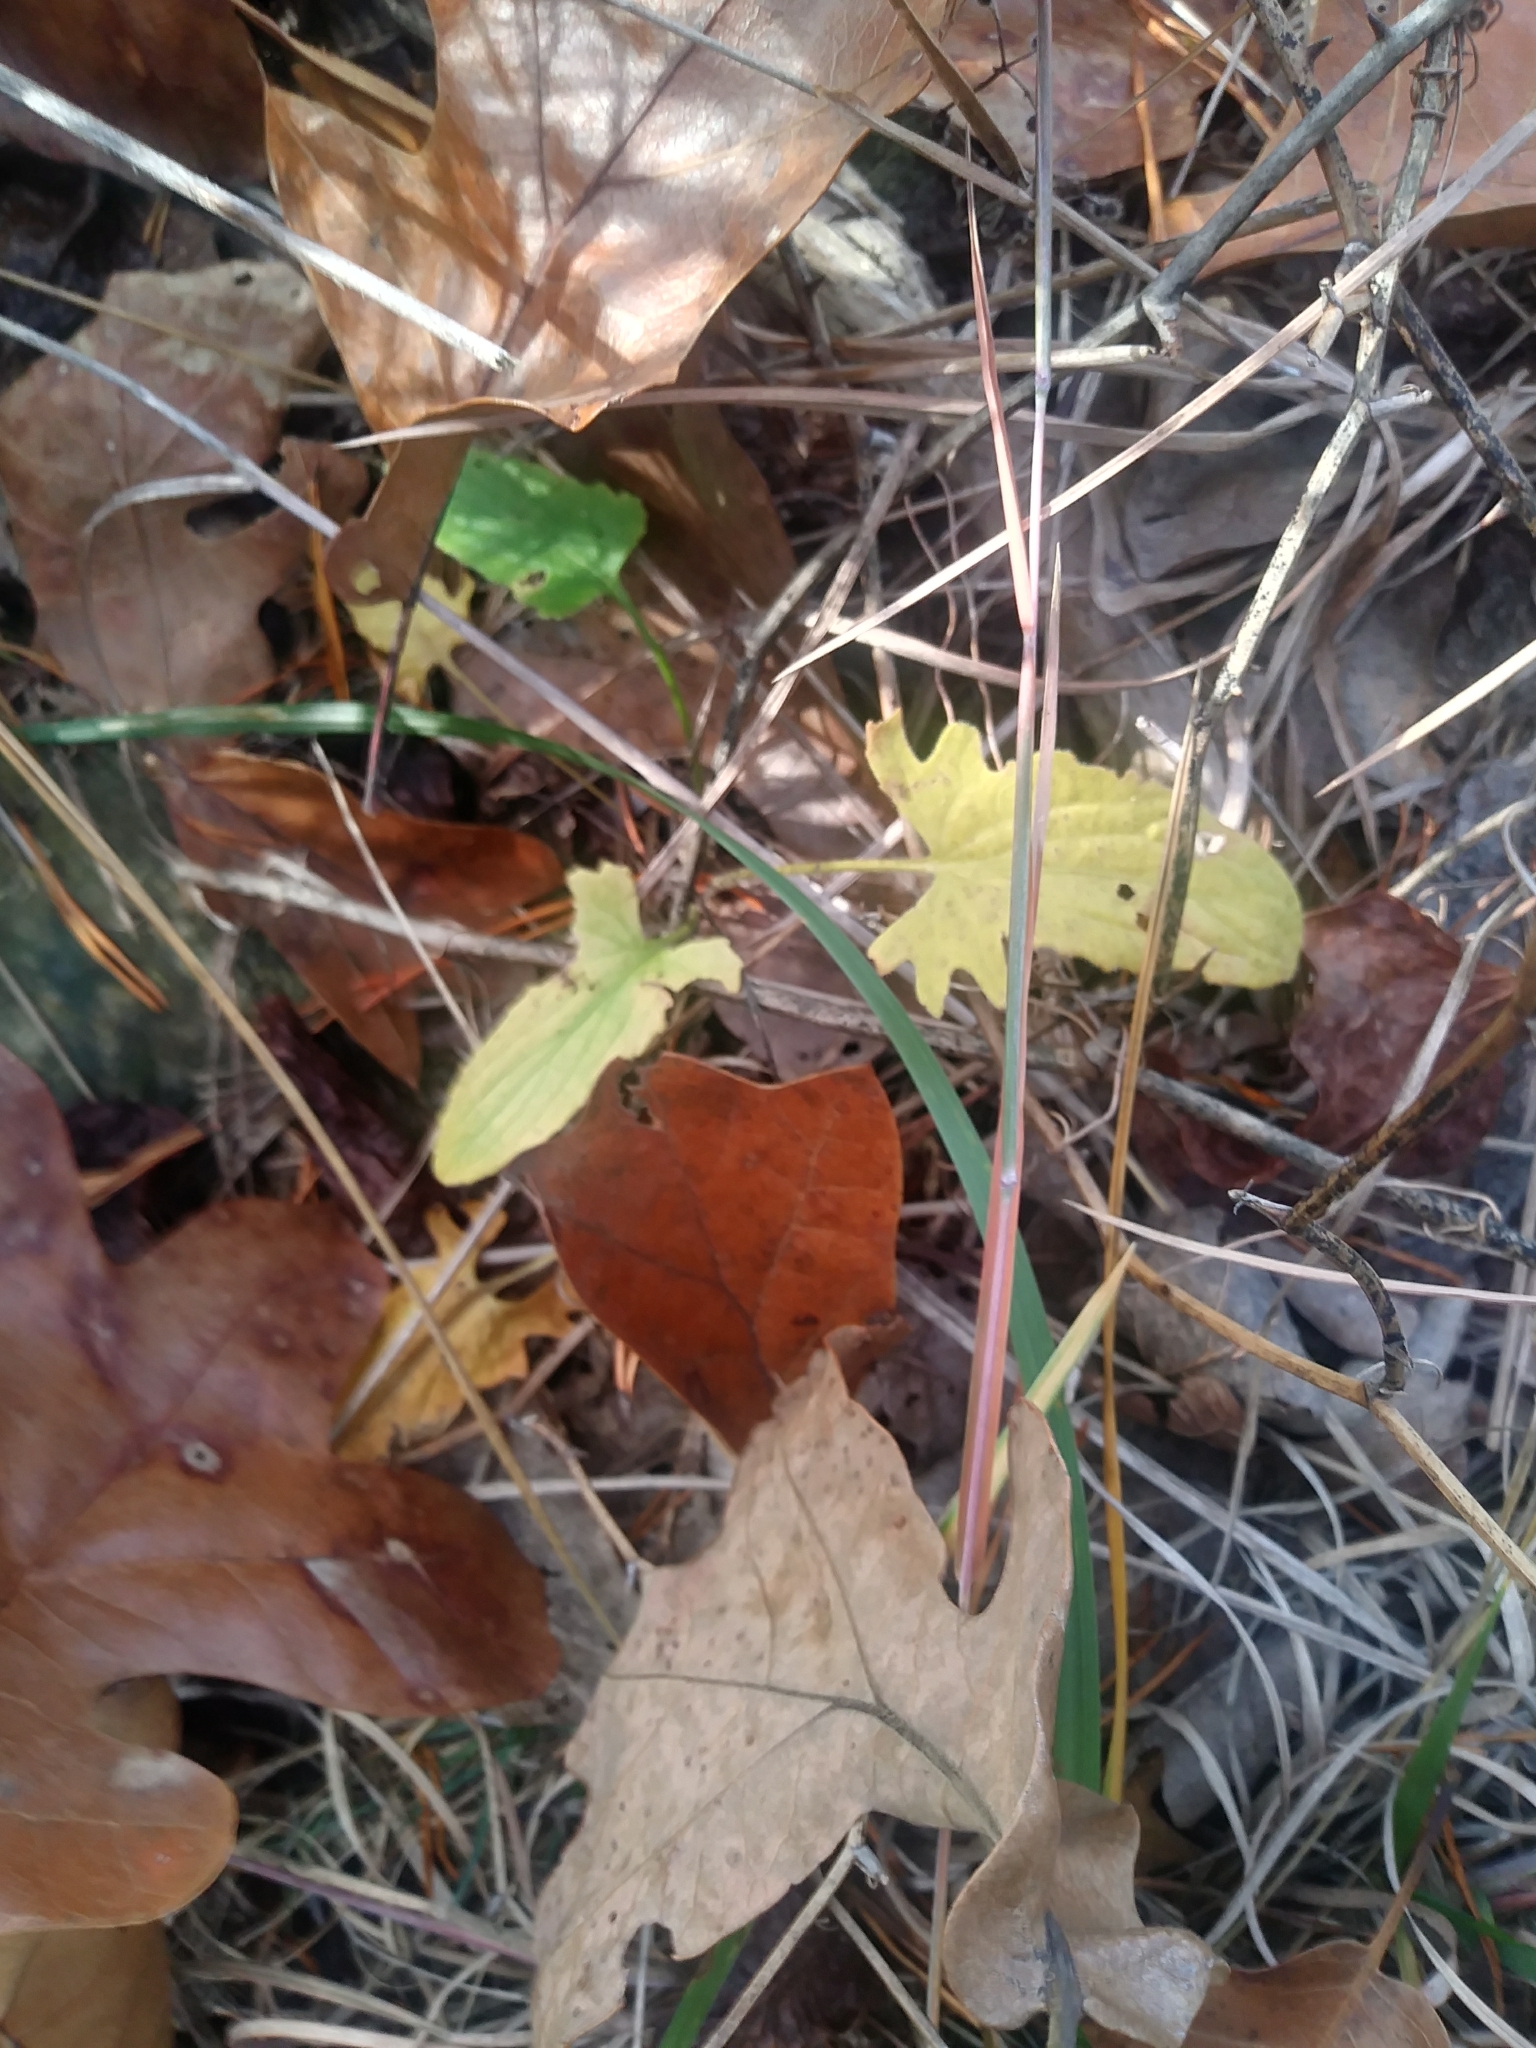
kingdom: Plantae
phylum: Tracheophyta
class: Magnoliopsida
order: Malpighiales
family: Violaceae
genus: Viola
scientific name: Viola sagittata
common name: Arrowhead violet
